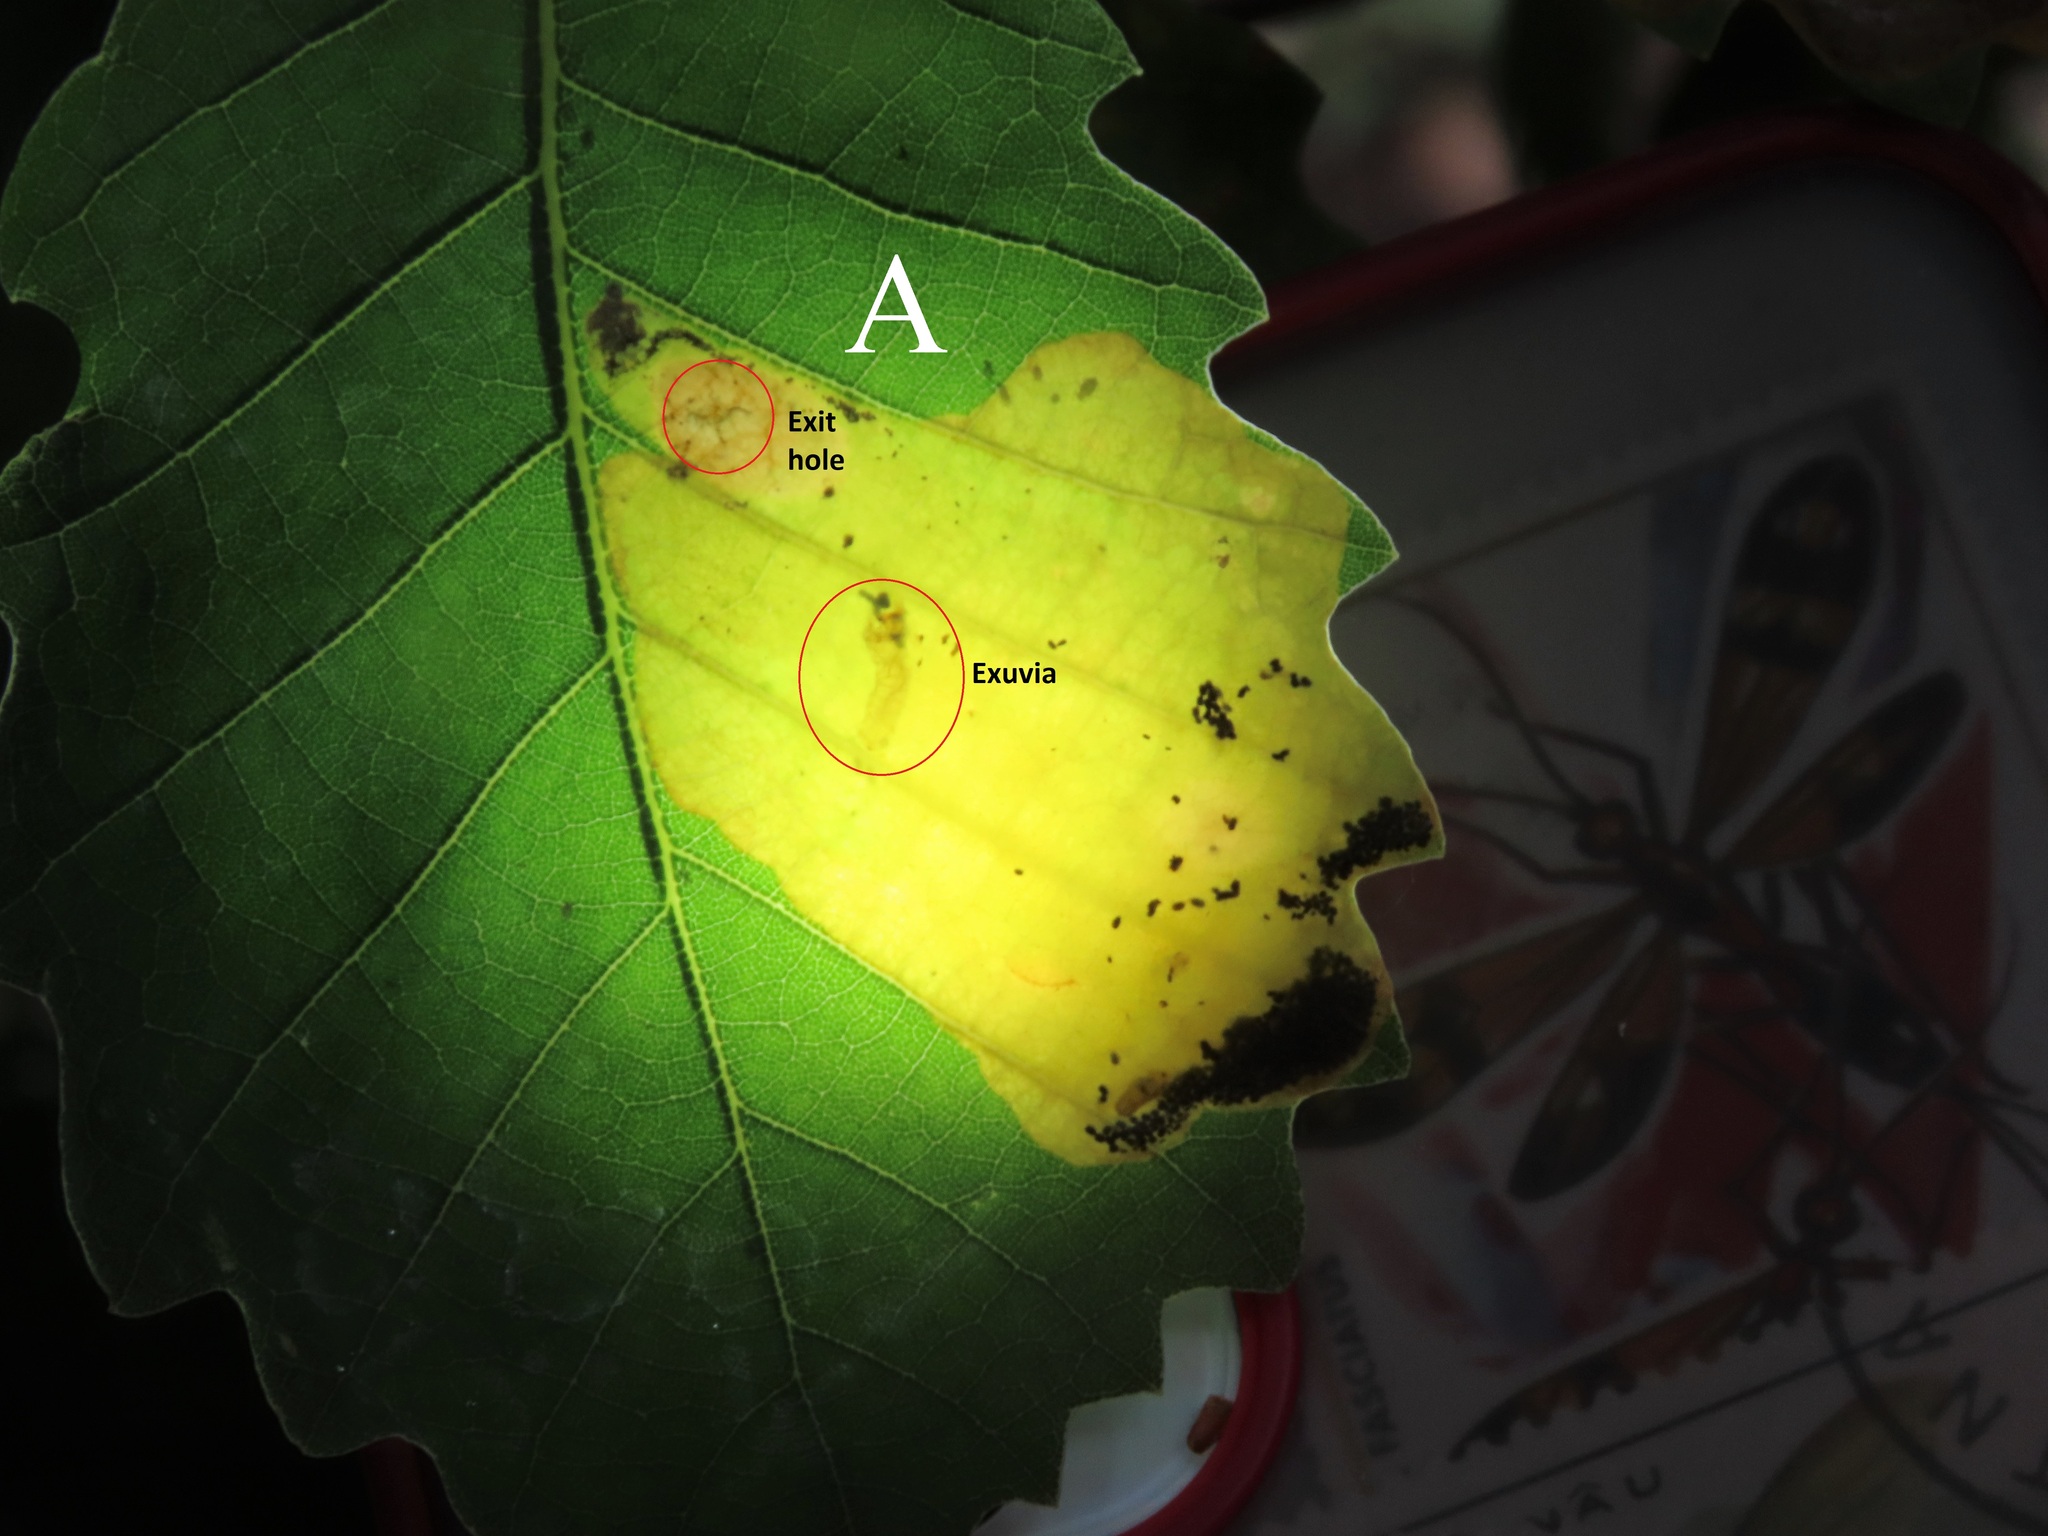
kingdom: Animalia
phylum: Arthropoda
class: Insecta
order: Hymenoptera
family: Tenthredinidae
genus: Profenusa
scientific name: Profenusa pygmaea
